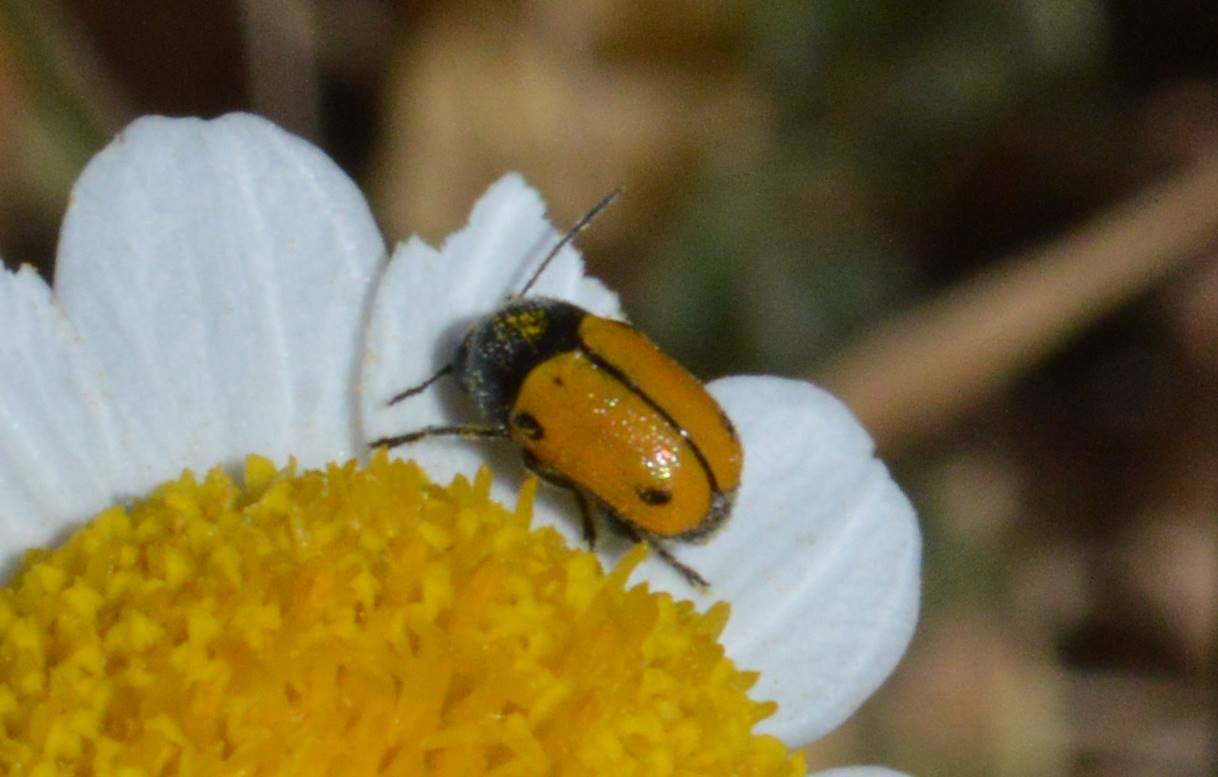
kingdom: Animalia
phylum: Arthropoda
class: Insecta
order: Coleoptera
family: Chrysomelidae
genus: Cryptocephalus
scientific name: Cryptocephalus rugicollis
